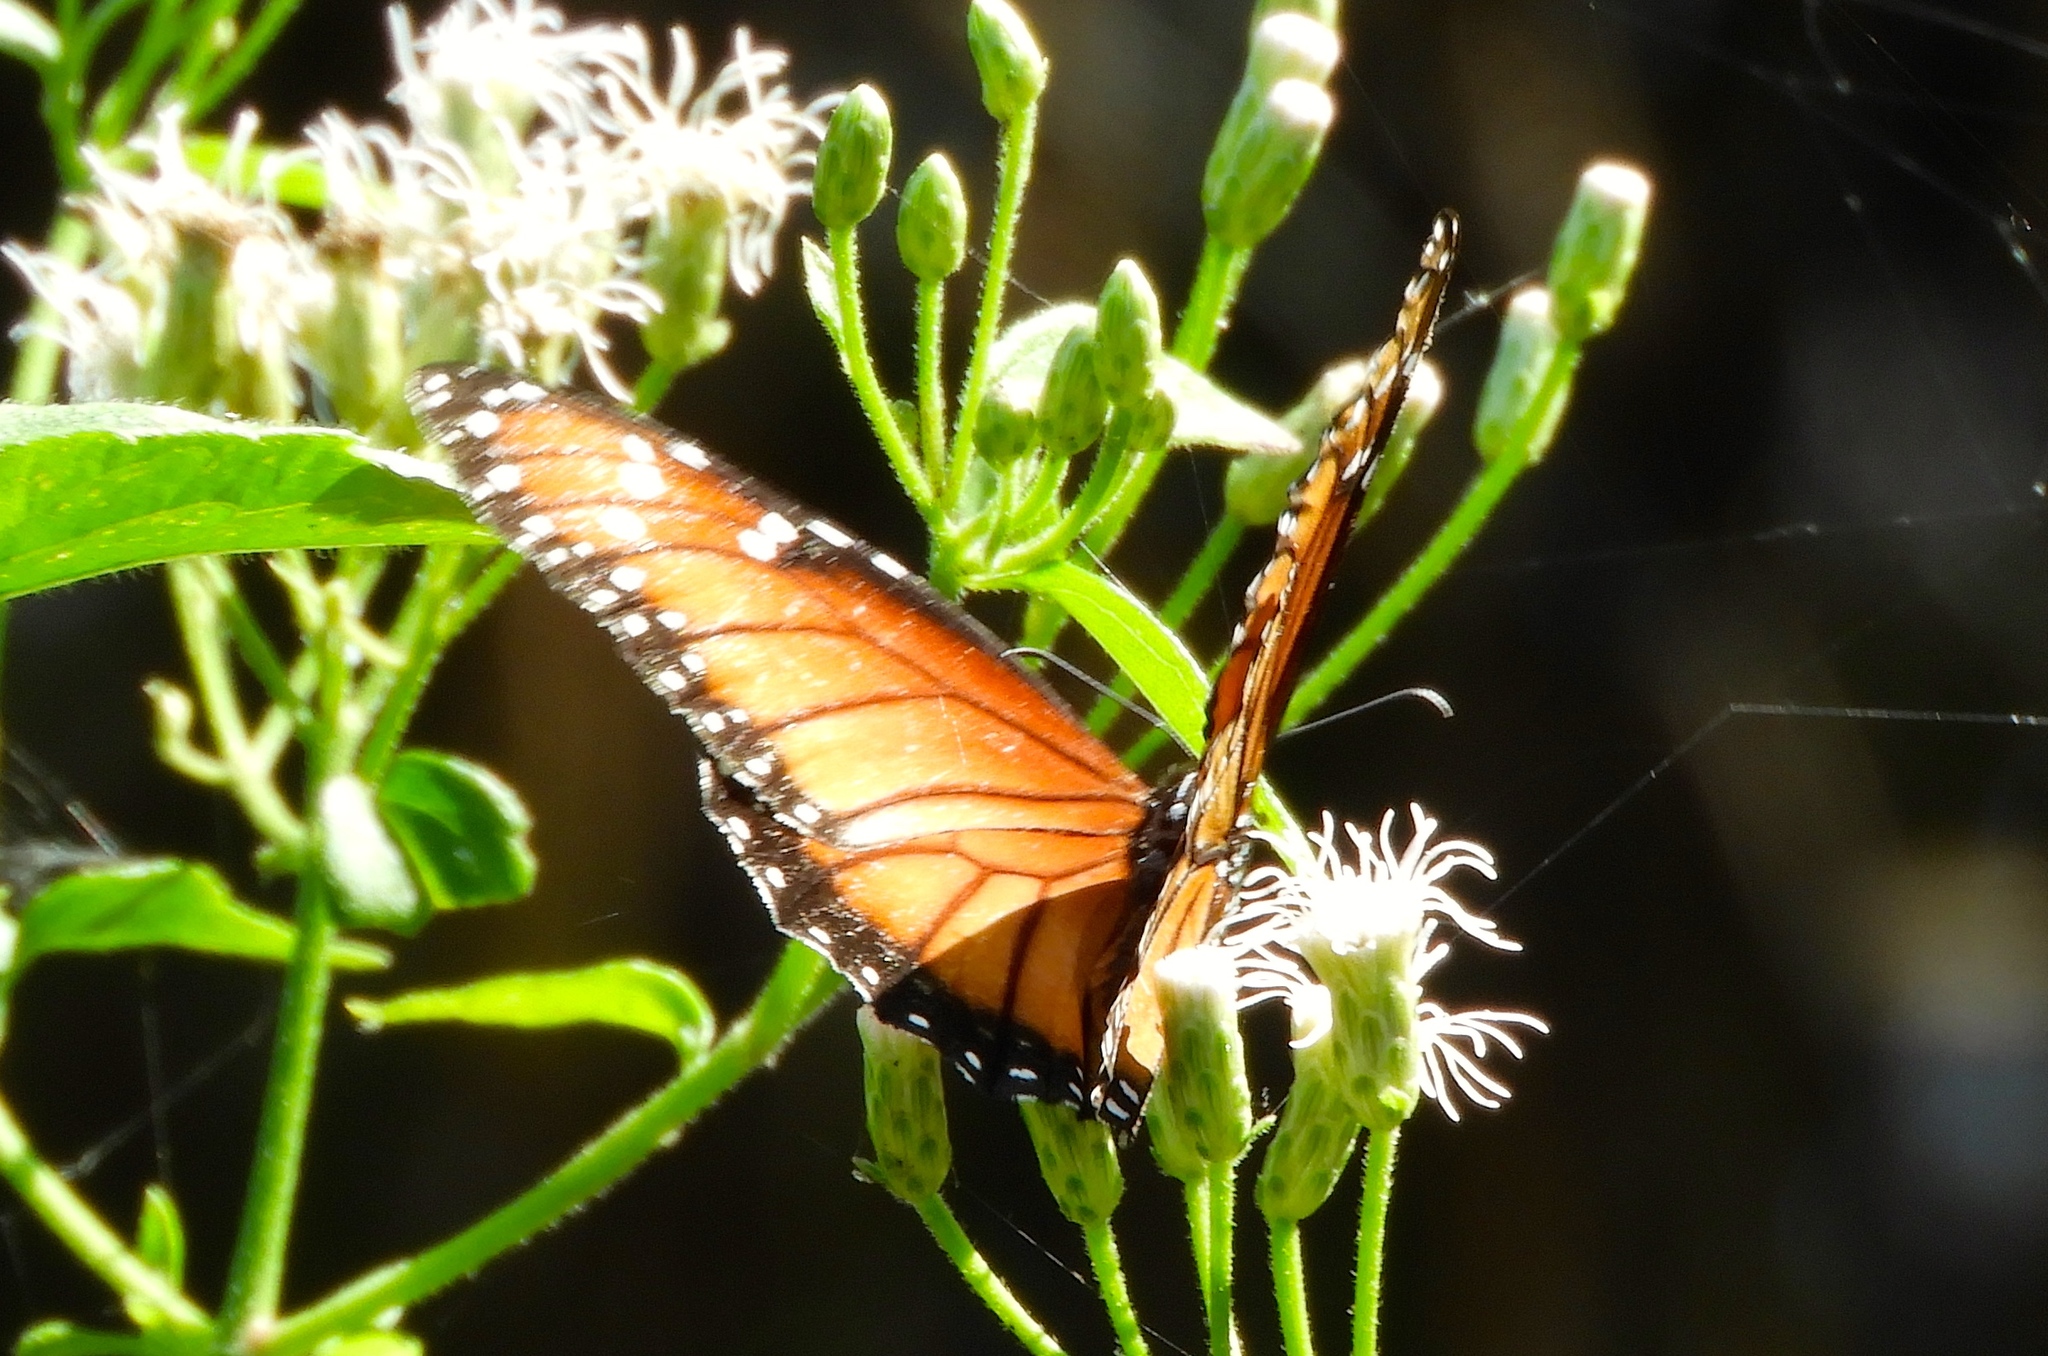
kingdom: Animalia
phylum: Arthropoda
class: Insecta
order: Lepidoptera
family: Nymphalidae
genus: Danaus
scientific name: Danaus eresimus
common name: Soldier
